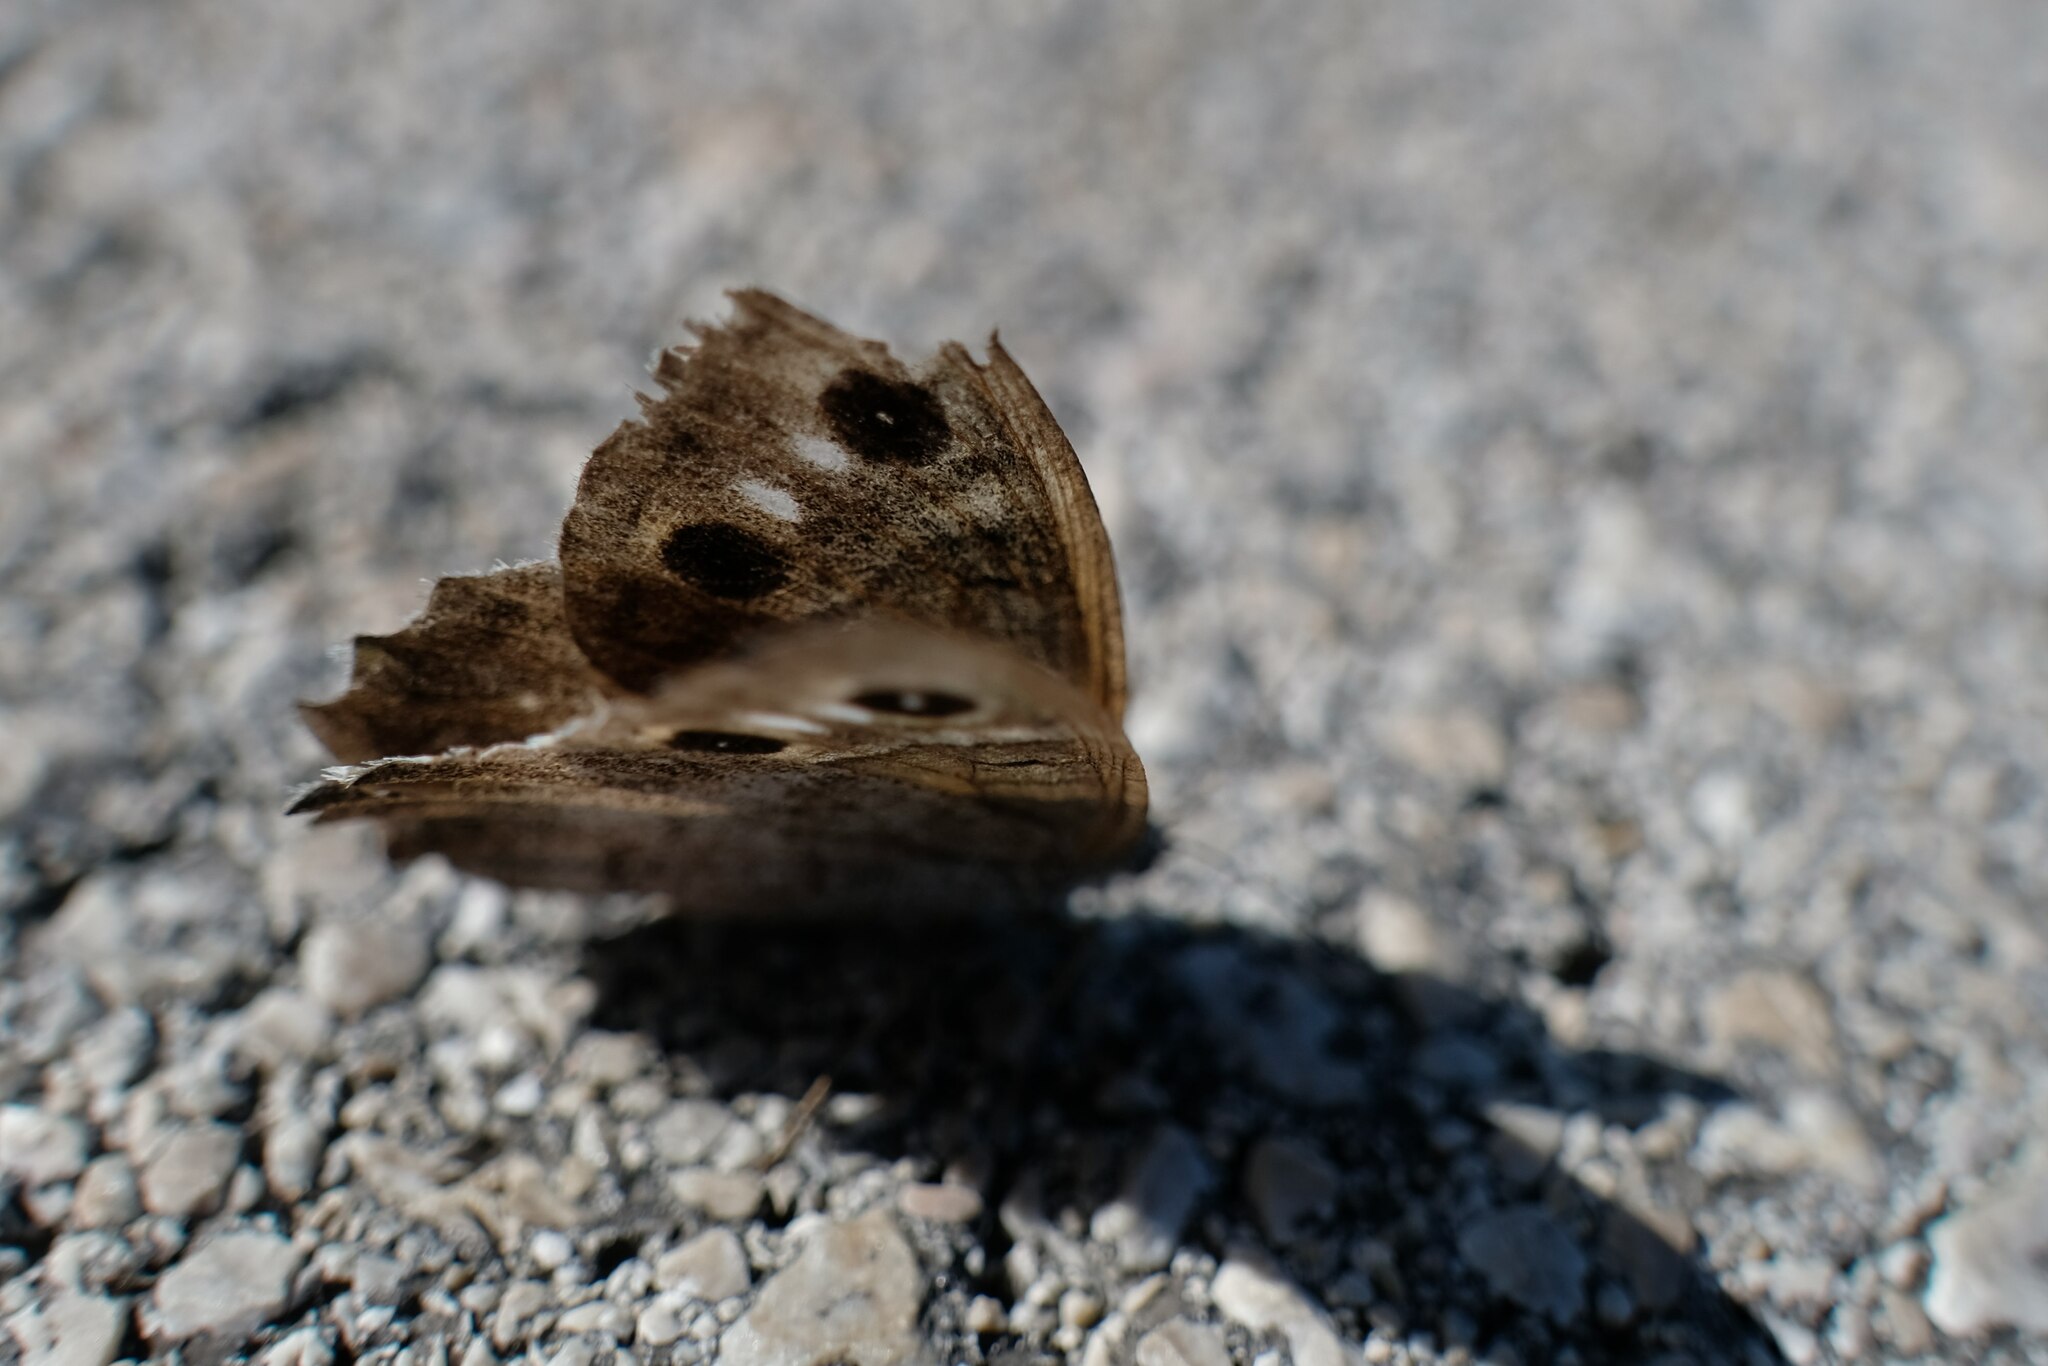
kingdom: Animalia
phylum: Arthropoda
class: Insecta
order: Lepidoptera
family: Nymphalidae
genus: Hipparchia
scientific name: Hipparchia statilinus
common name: Tree grayling
